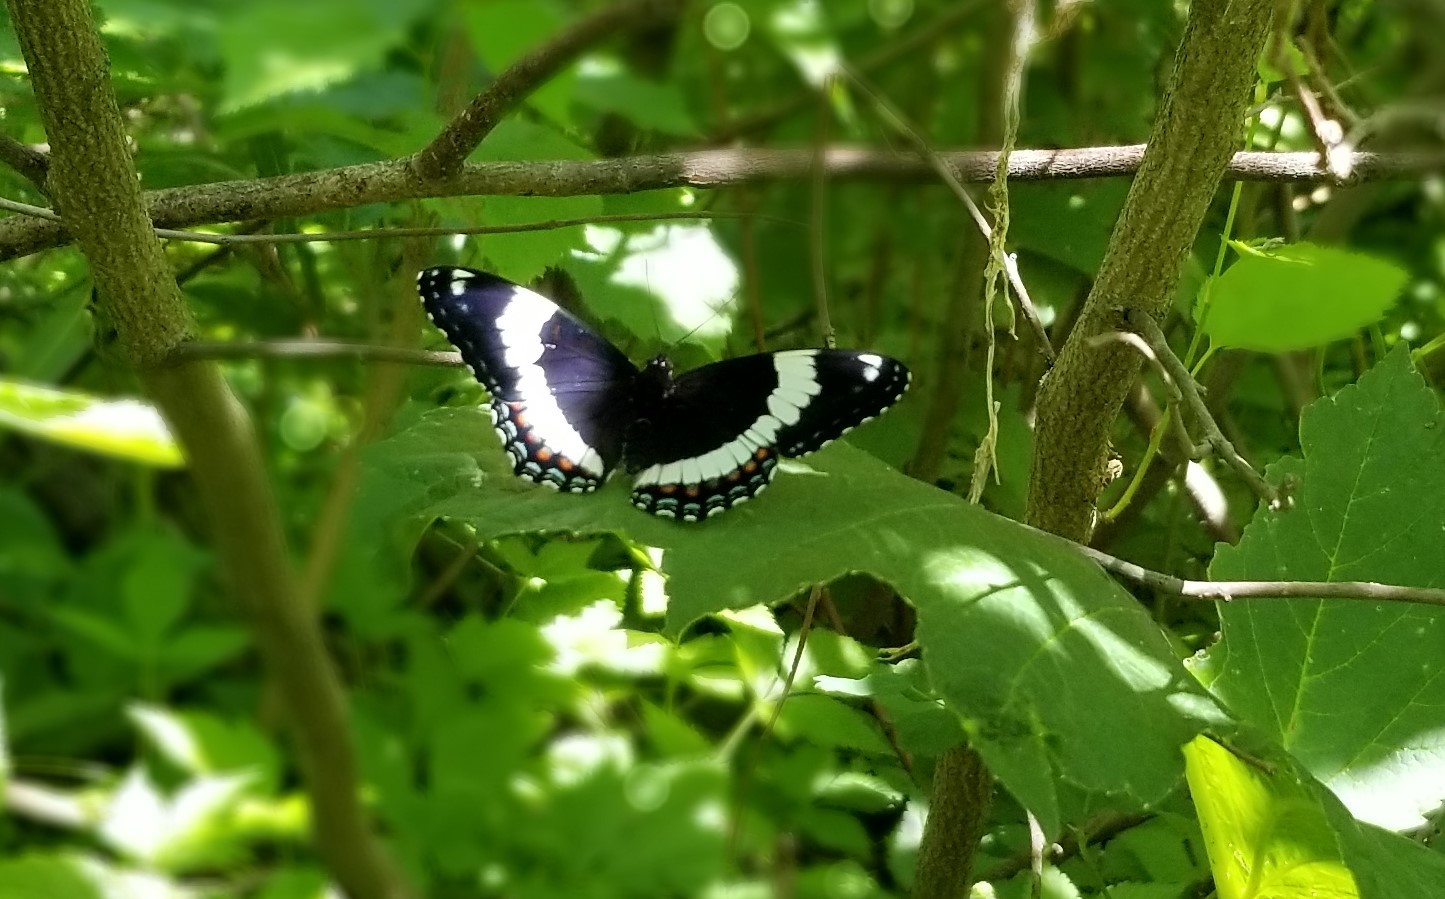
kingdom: Animalia
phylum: Arthropoda
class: Insecta
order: Lepidoptera
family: Nymphalidae
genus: Limenitis
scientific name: Limenitis arthemis
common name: Red-spotted admiral
